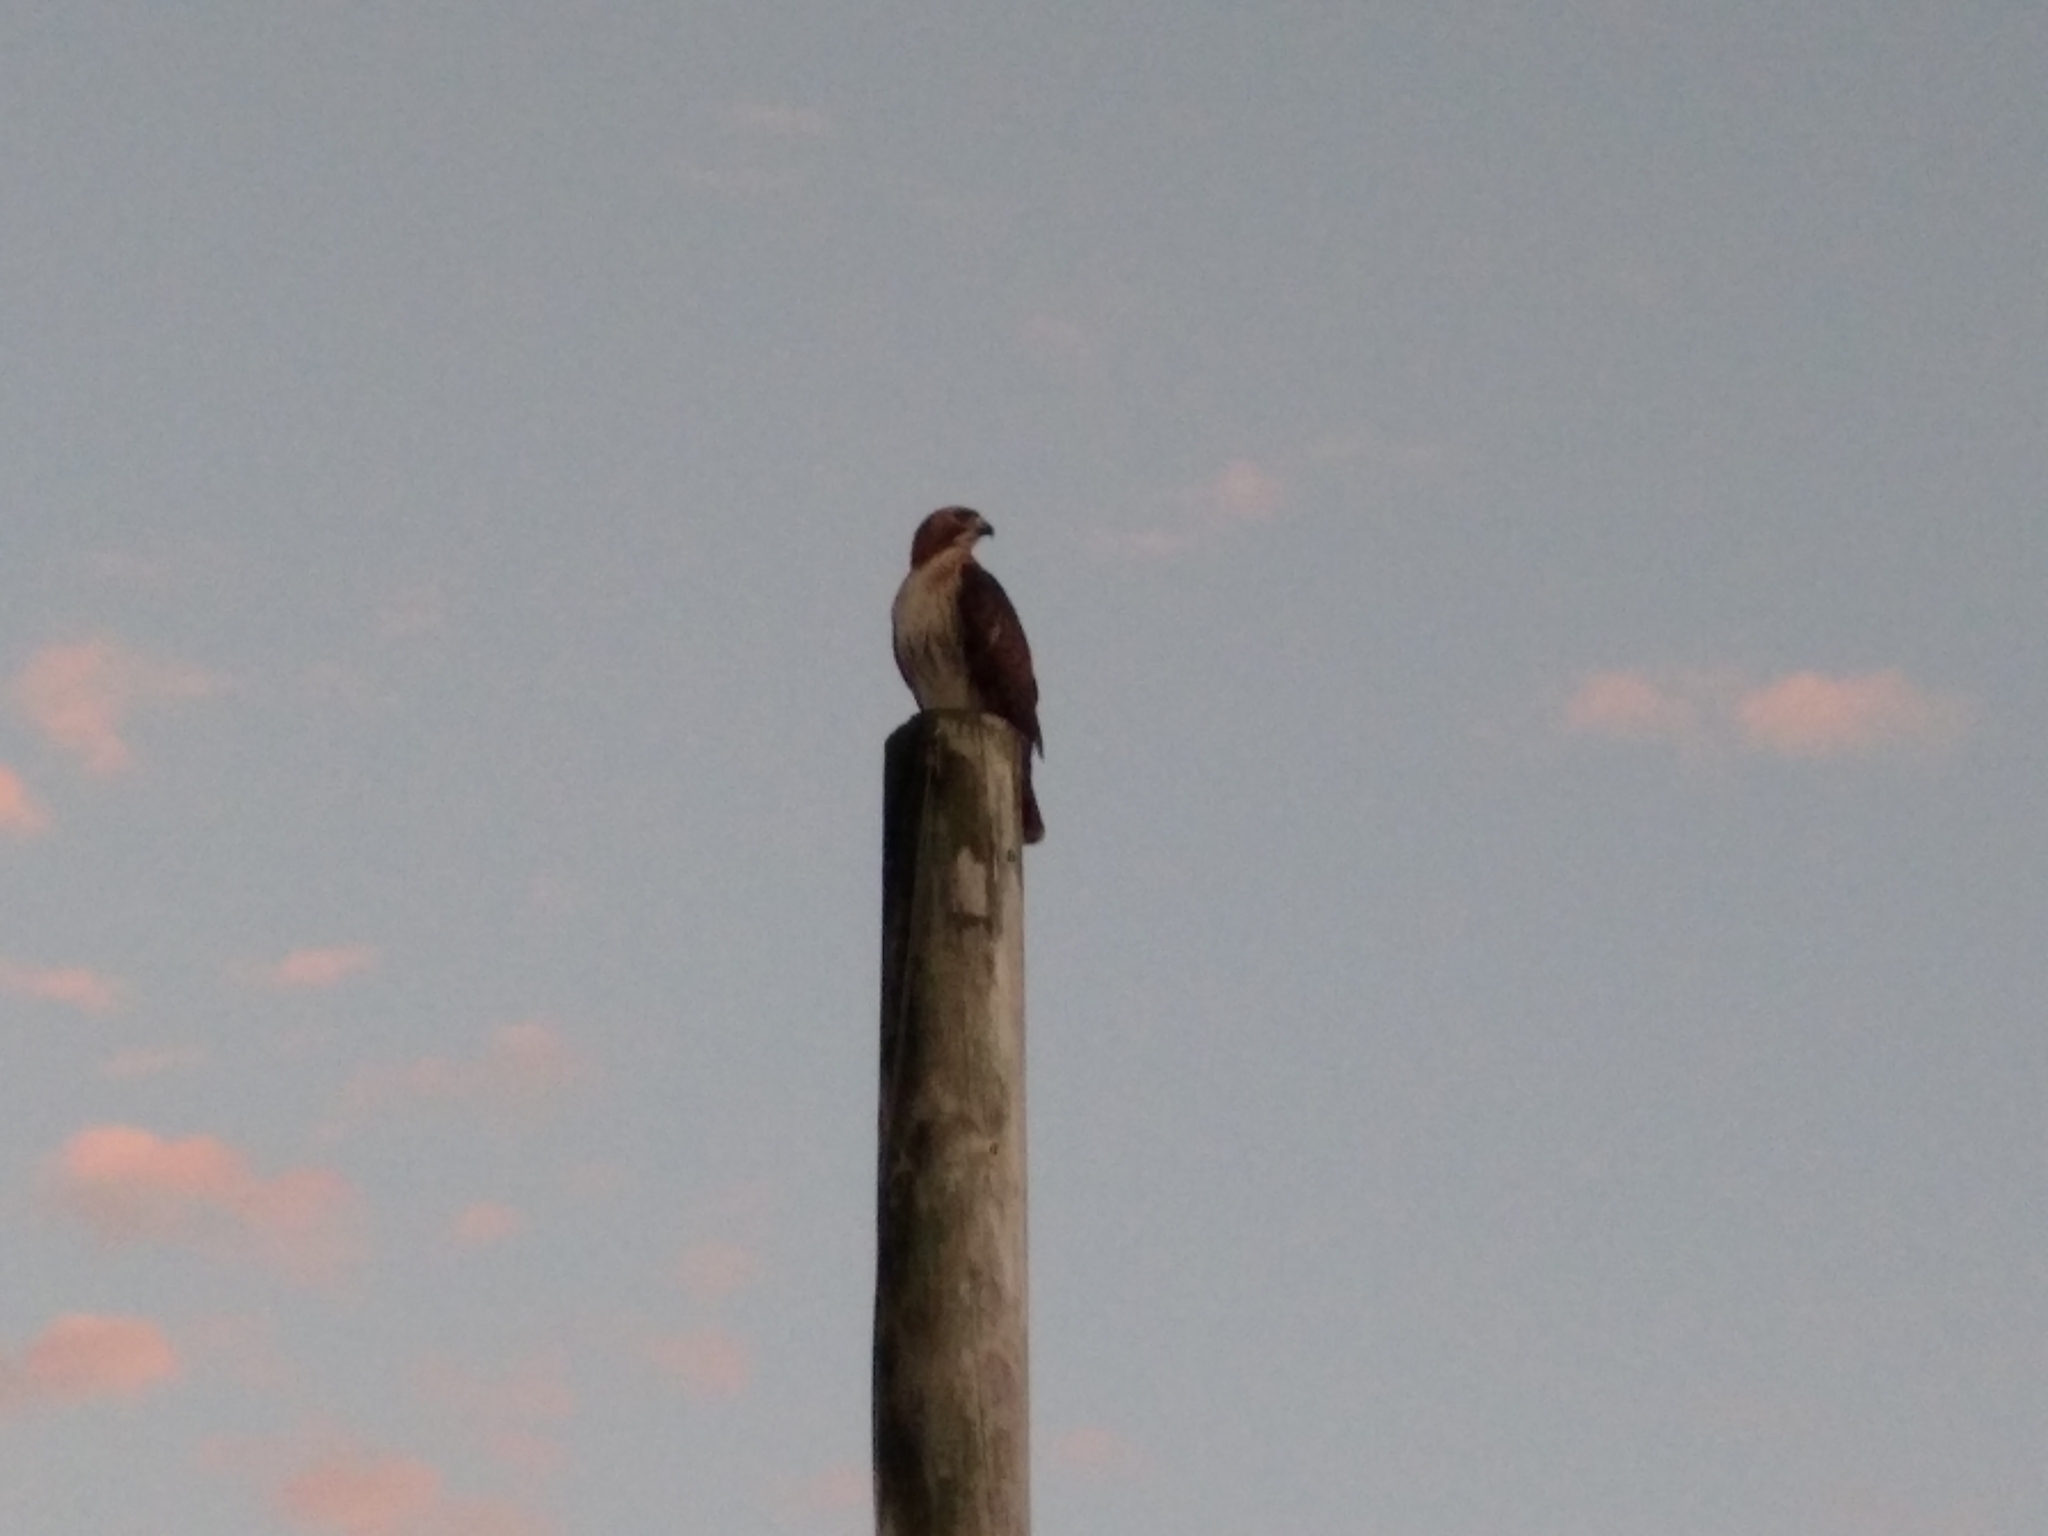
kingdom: Animalia
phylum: Chordata
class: Aves
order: Accipitriformes
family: Accipitridae
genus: Buteo
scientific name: Buteo jamaicensis
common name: Red-tailed hawk
